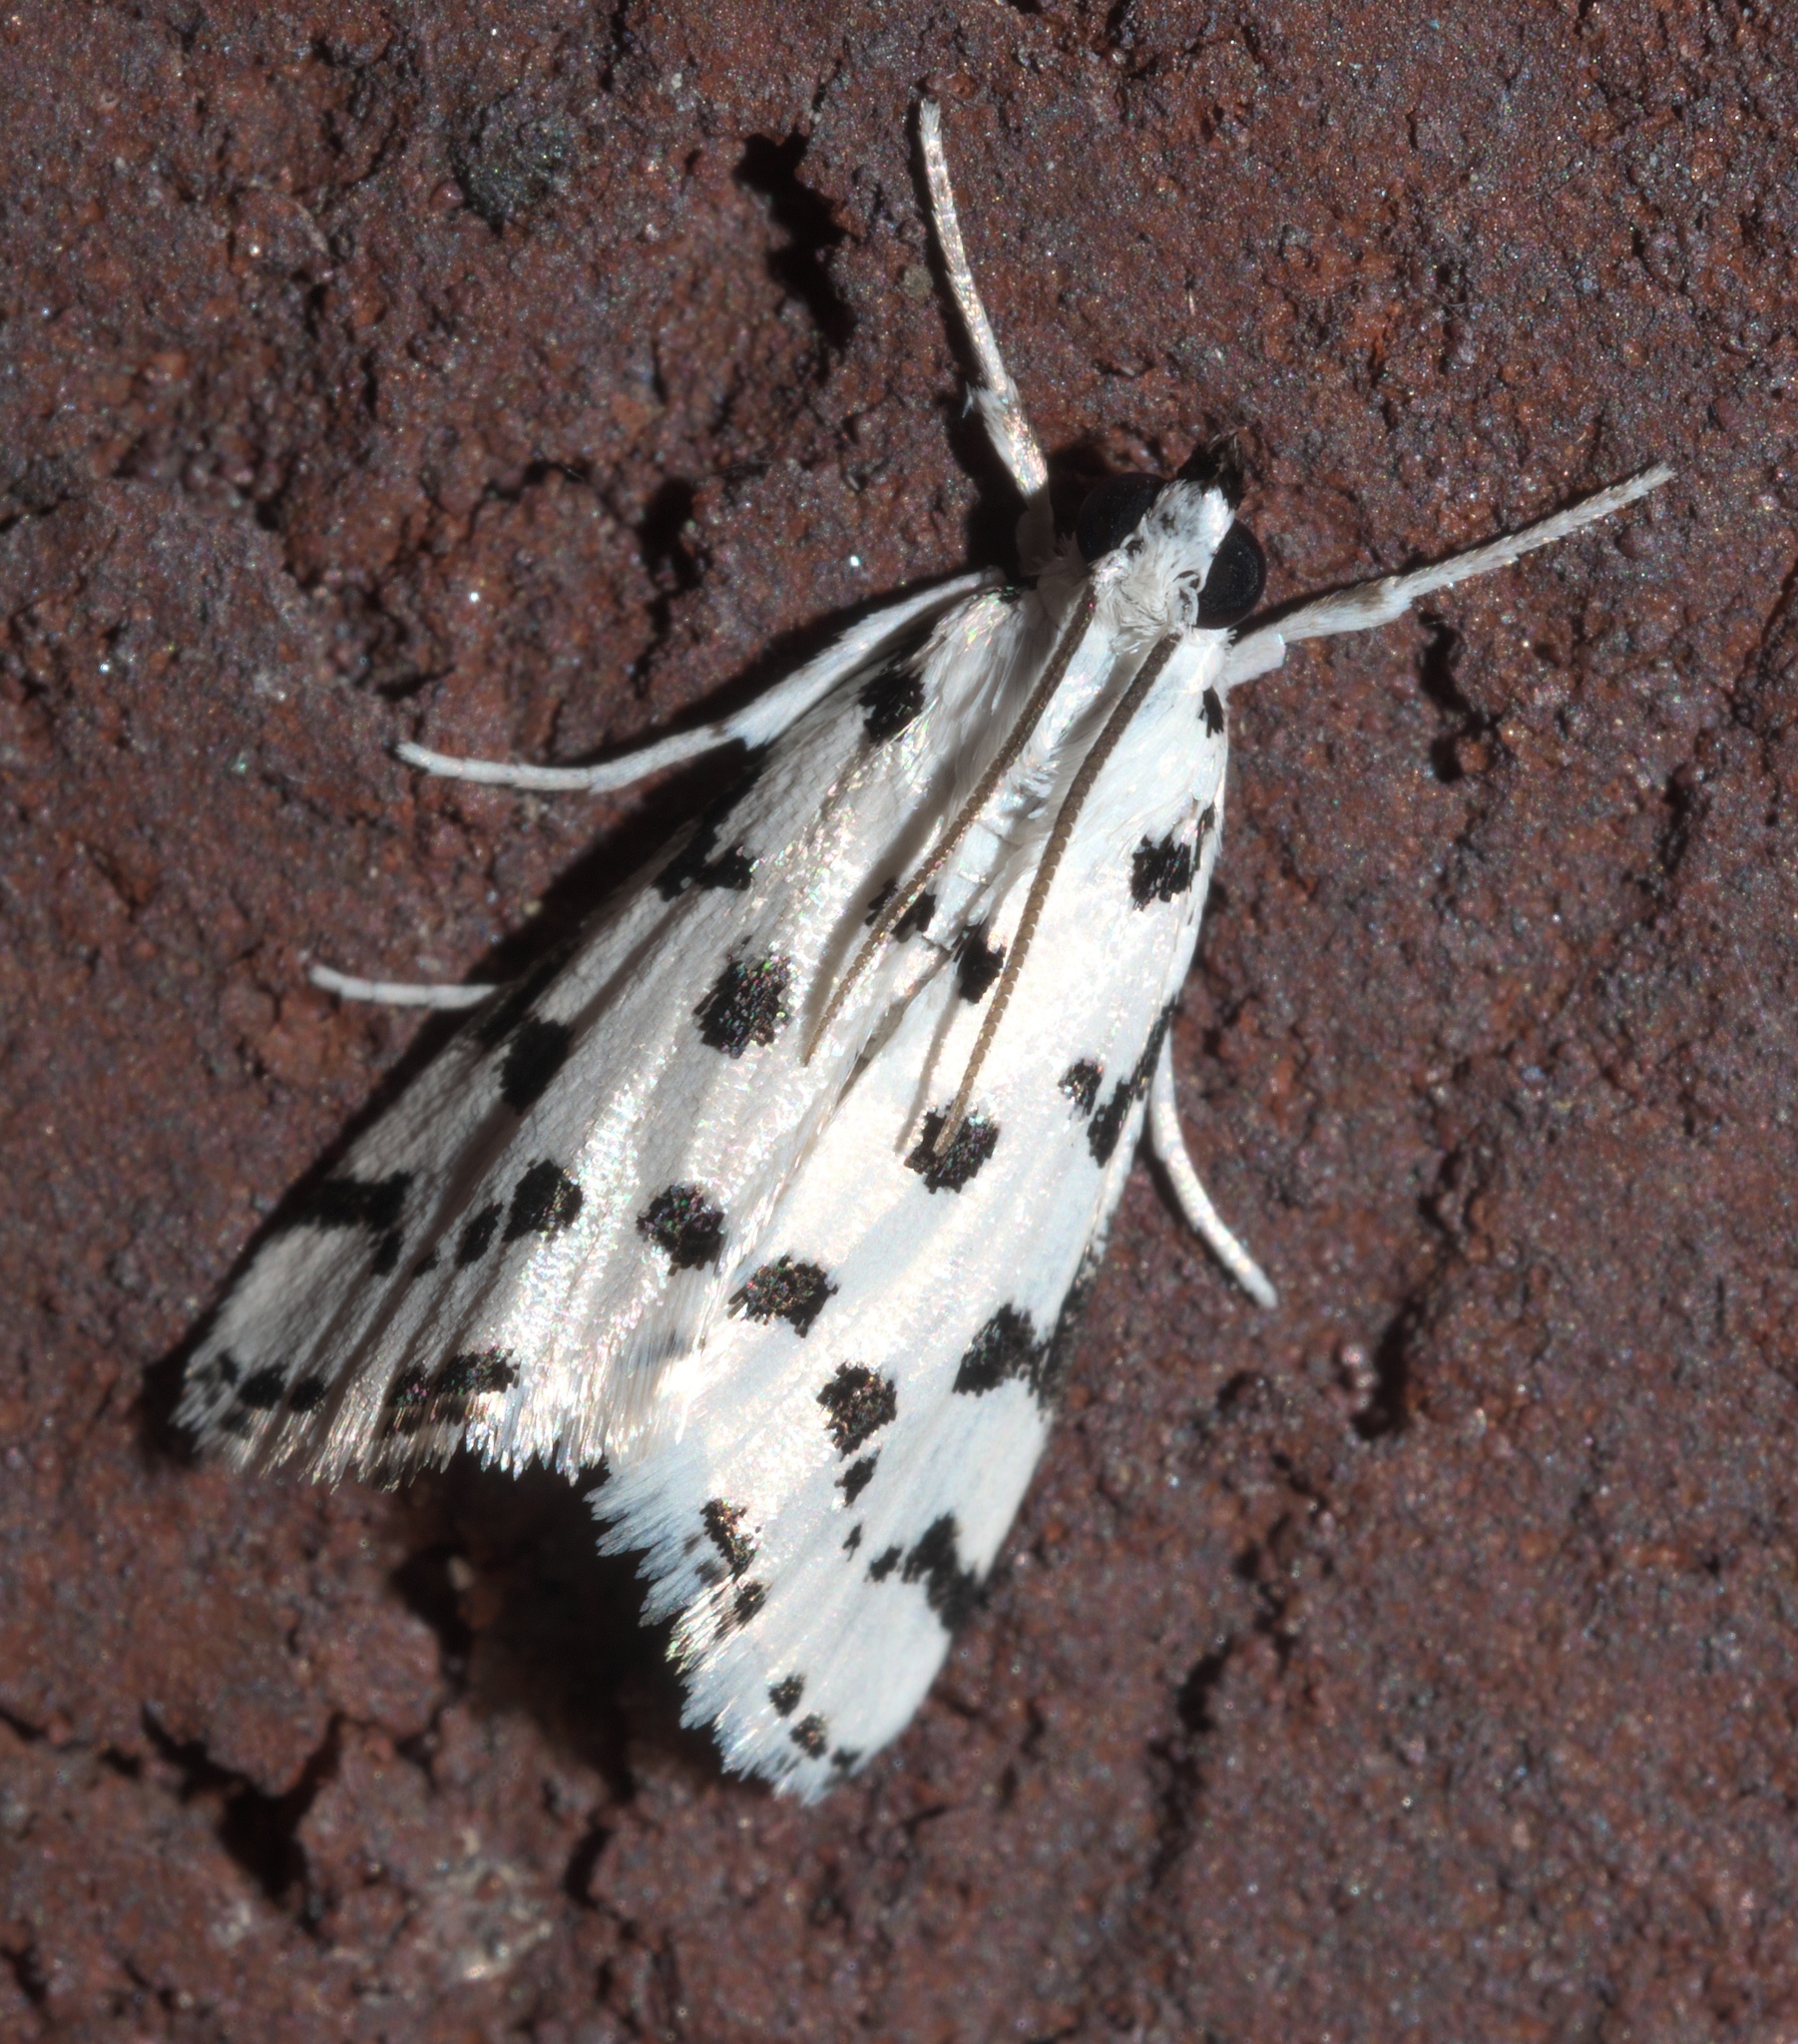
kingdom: Animalia
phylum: Arthropoda
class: Insecta
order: Lepidoptera
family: Crambidae
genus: Eustixia
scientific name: Eustixia pupula
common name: American cabbage pearl
